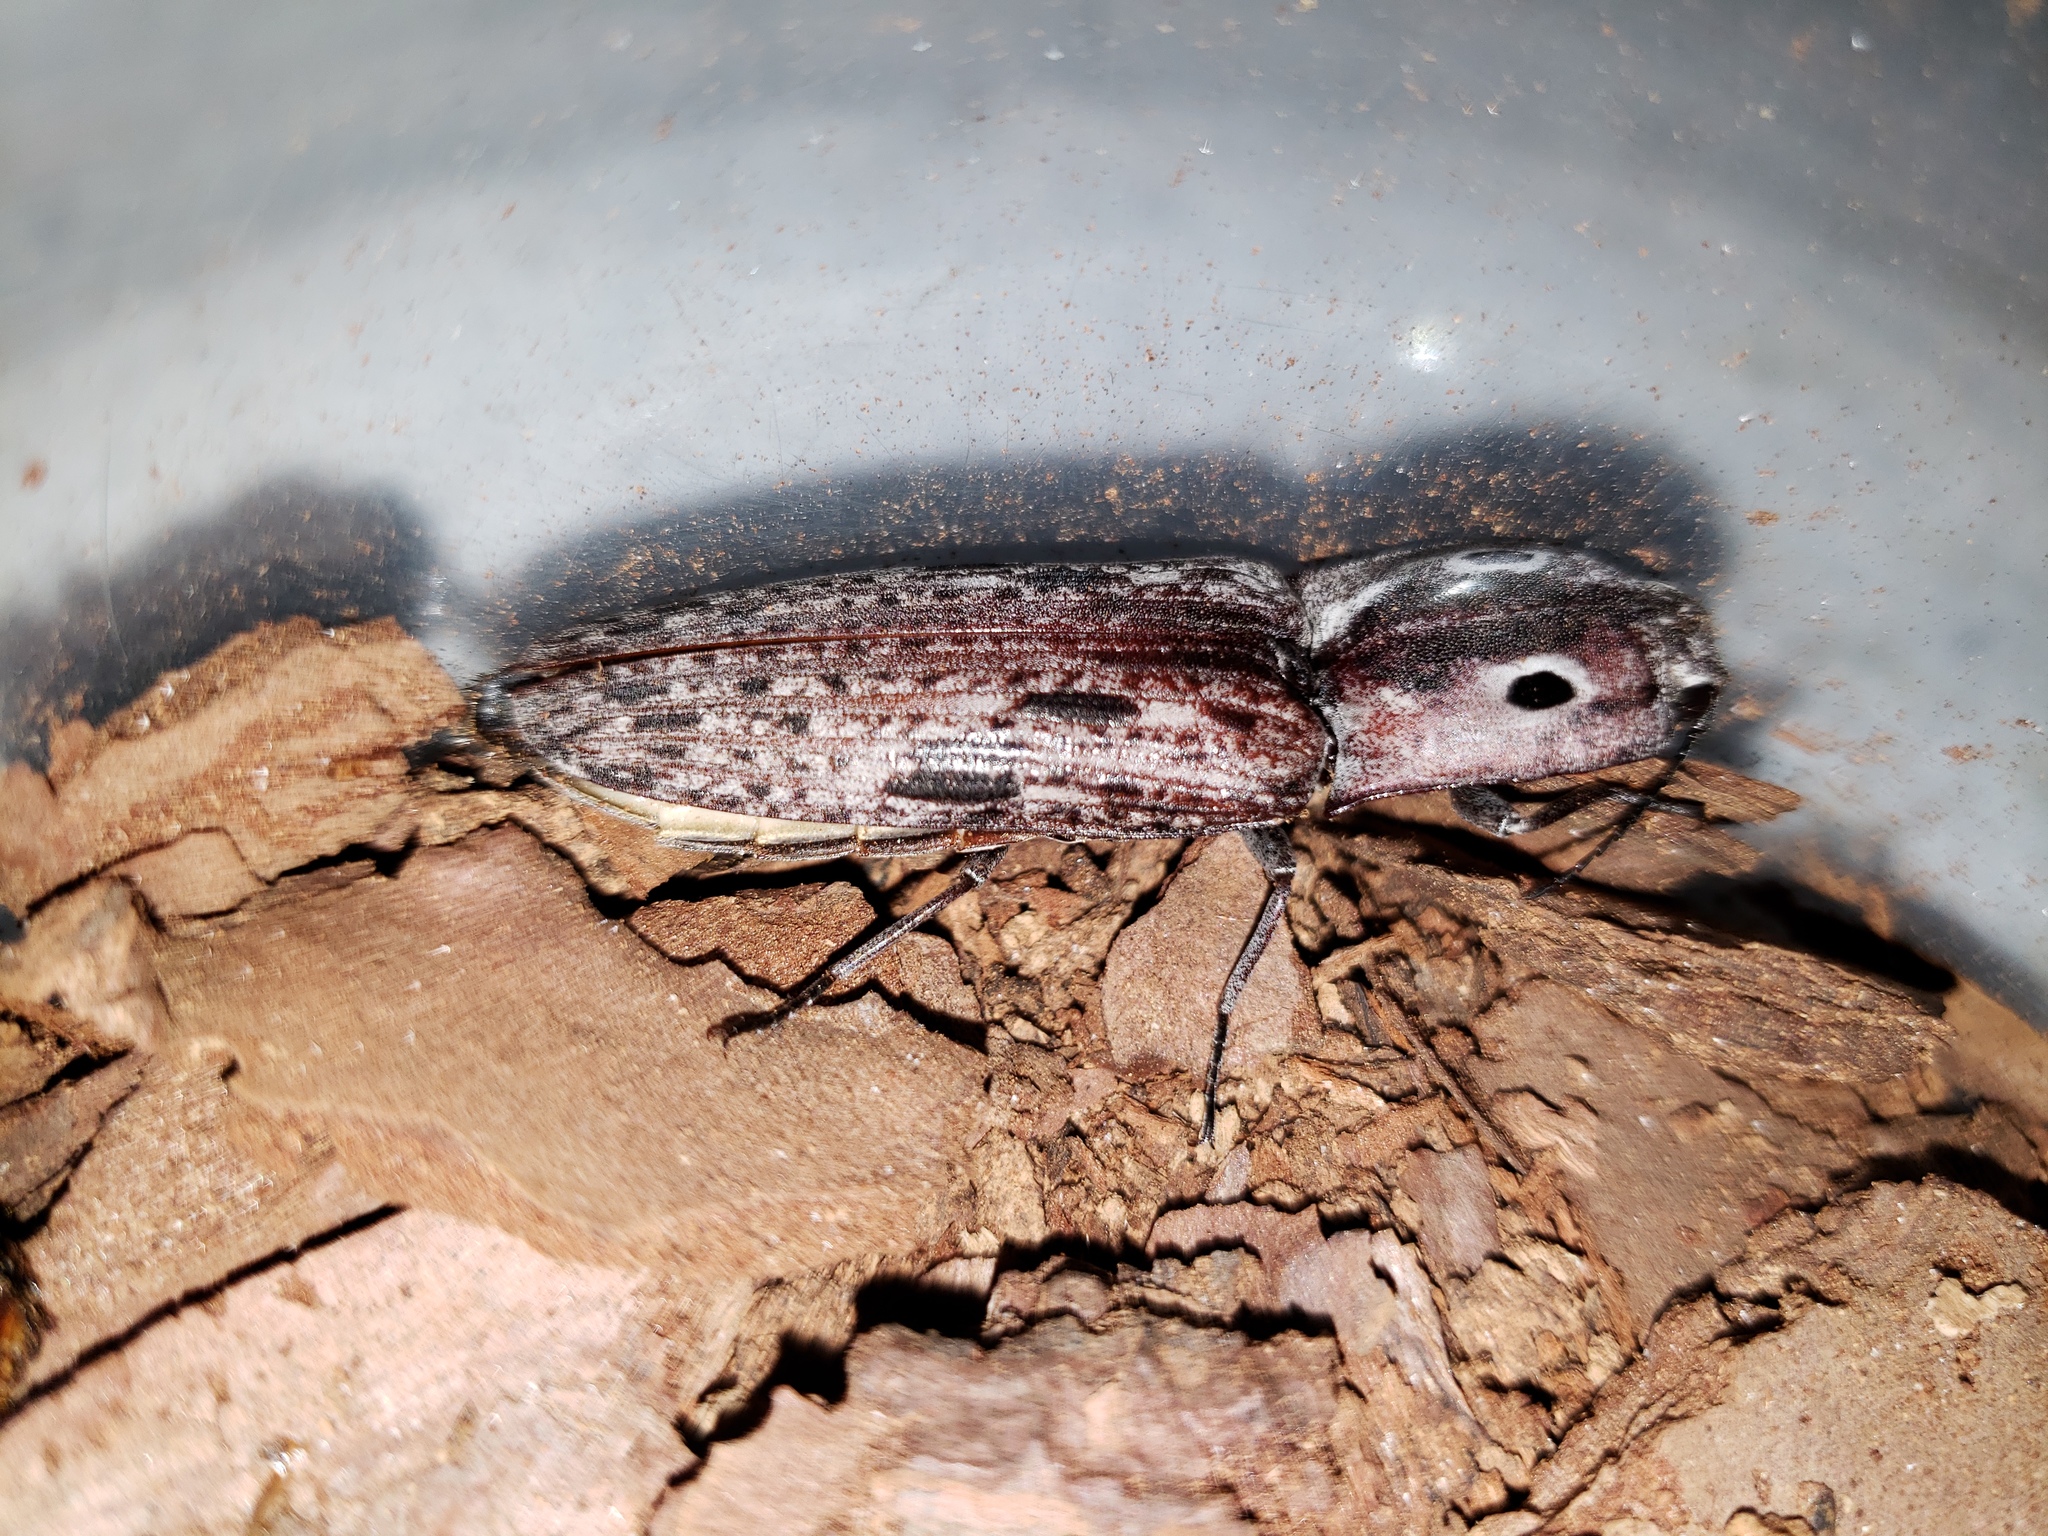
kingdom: Animalia
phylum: Arthropoda
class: Insecta
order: Coleoptera
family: Elateridae
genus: Alaus
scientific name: Alaus myops
